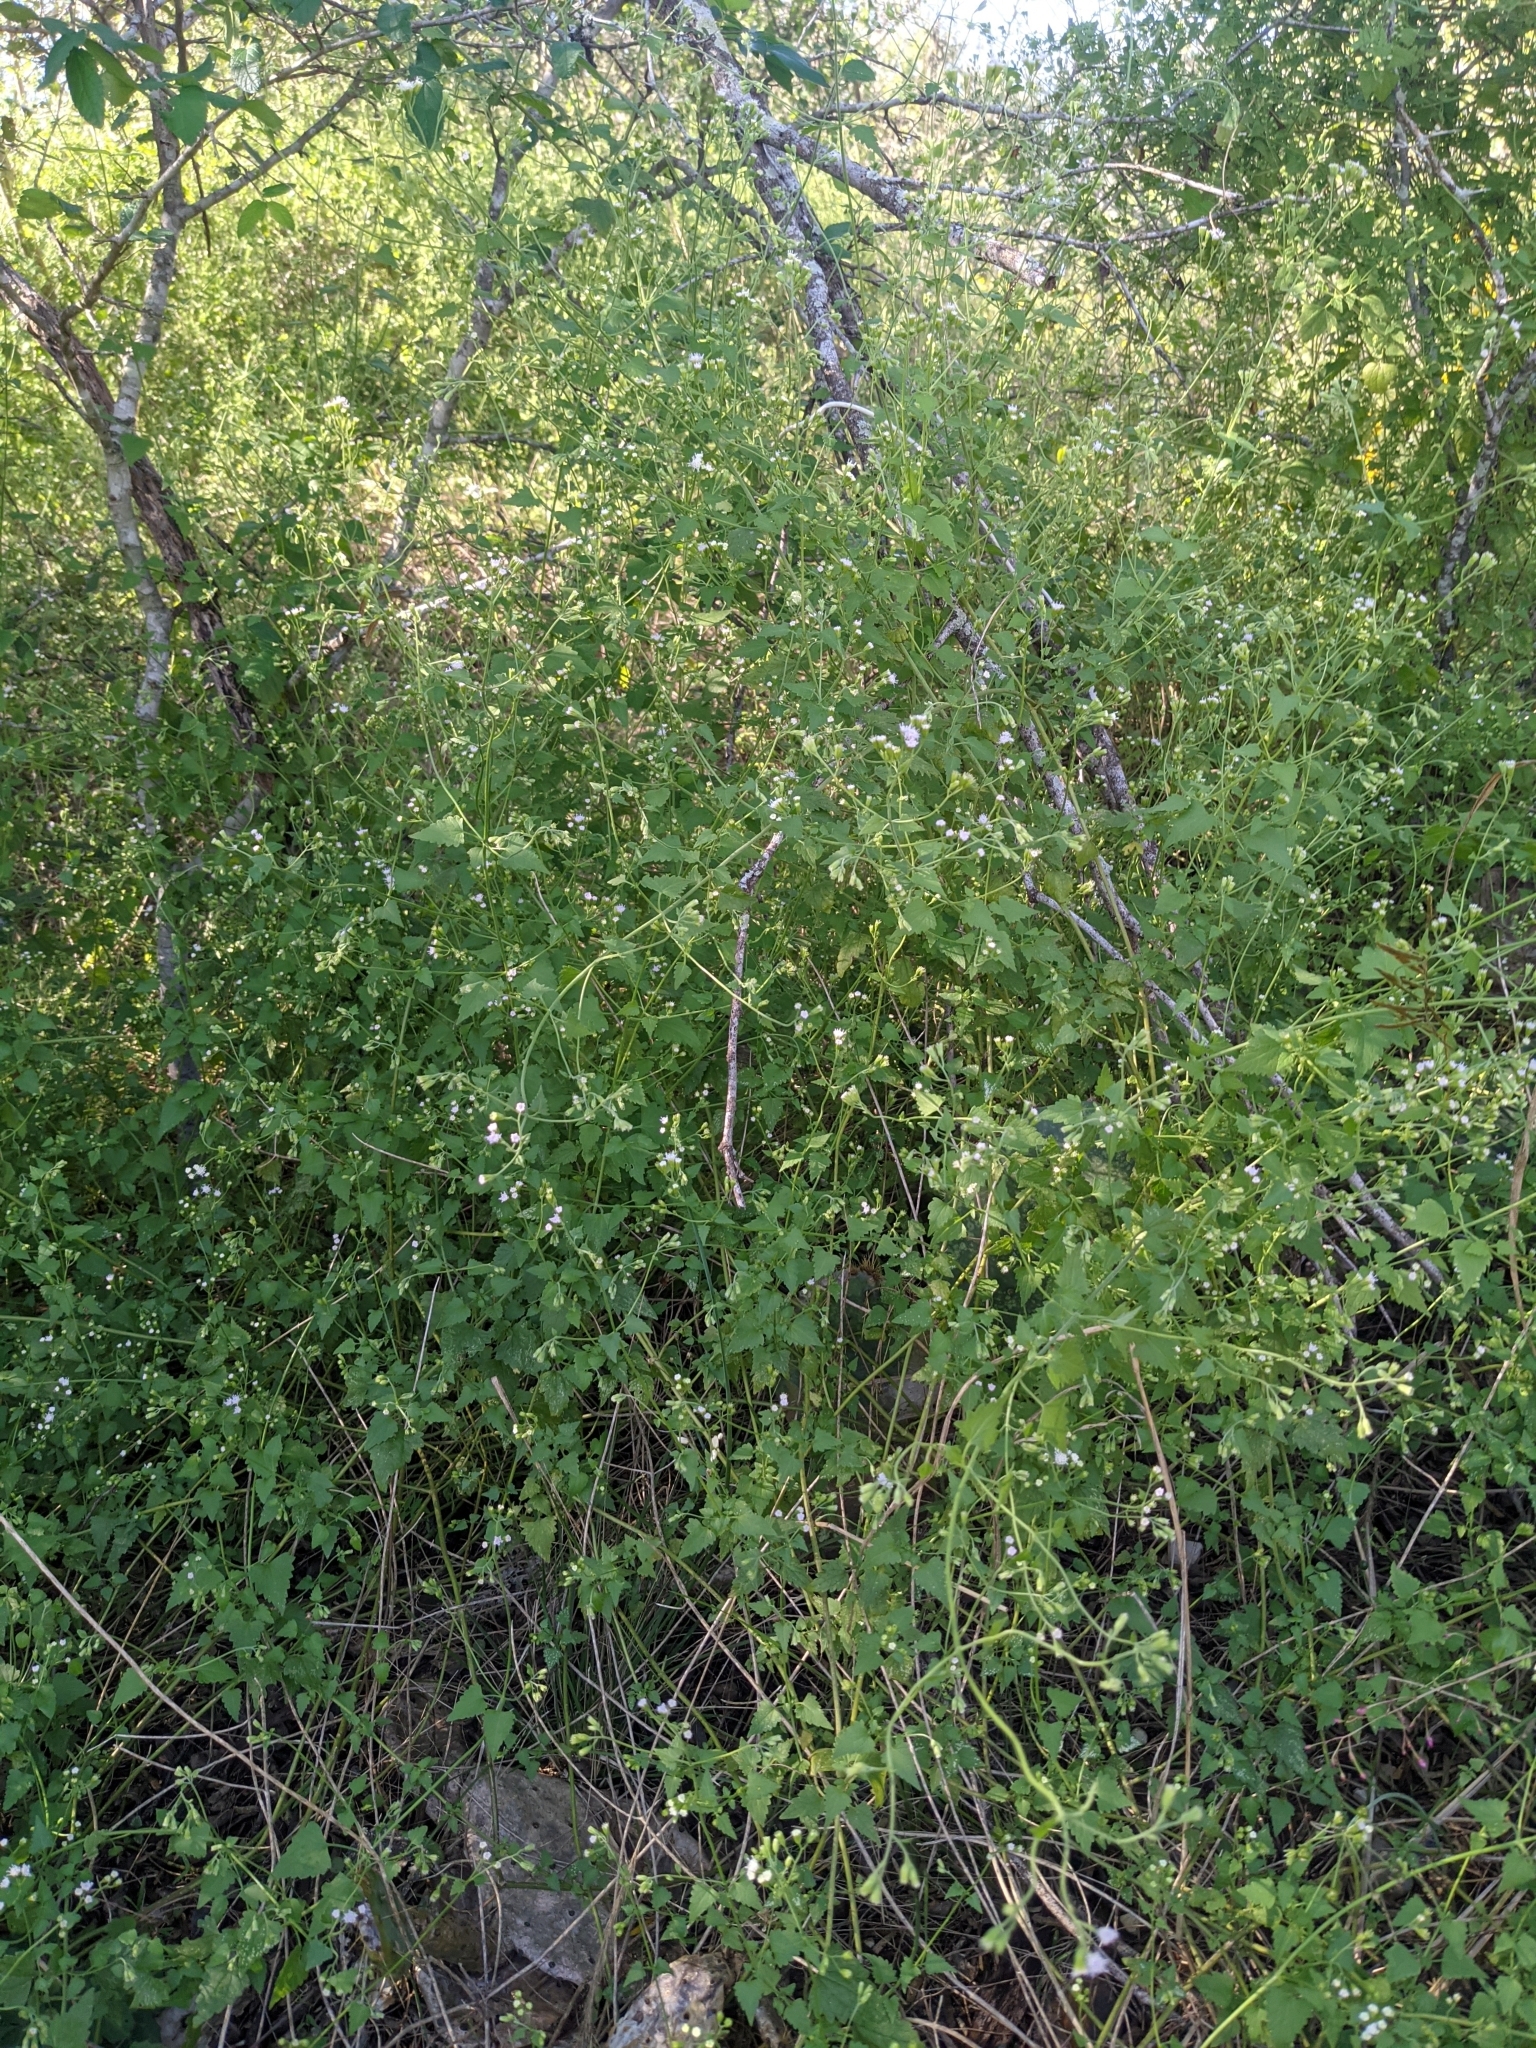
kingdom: Plantae
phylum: Tracheophyta
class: Magnoliopsida
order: Asterales
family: Asteraceae
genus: Fleischmannia
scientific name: Fleischmannia incarnata
